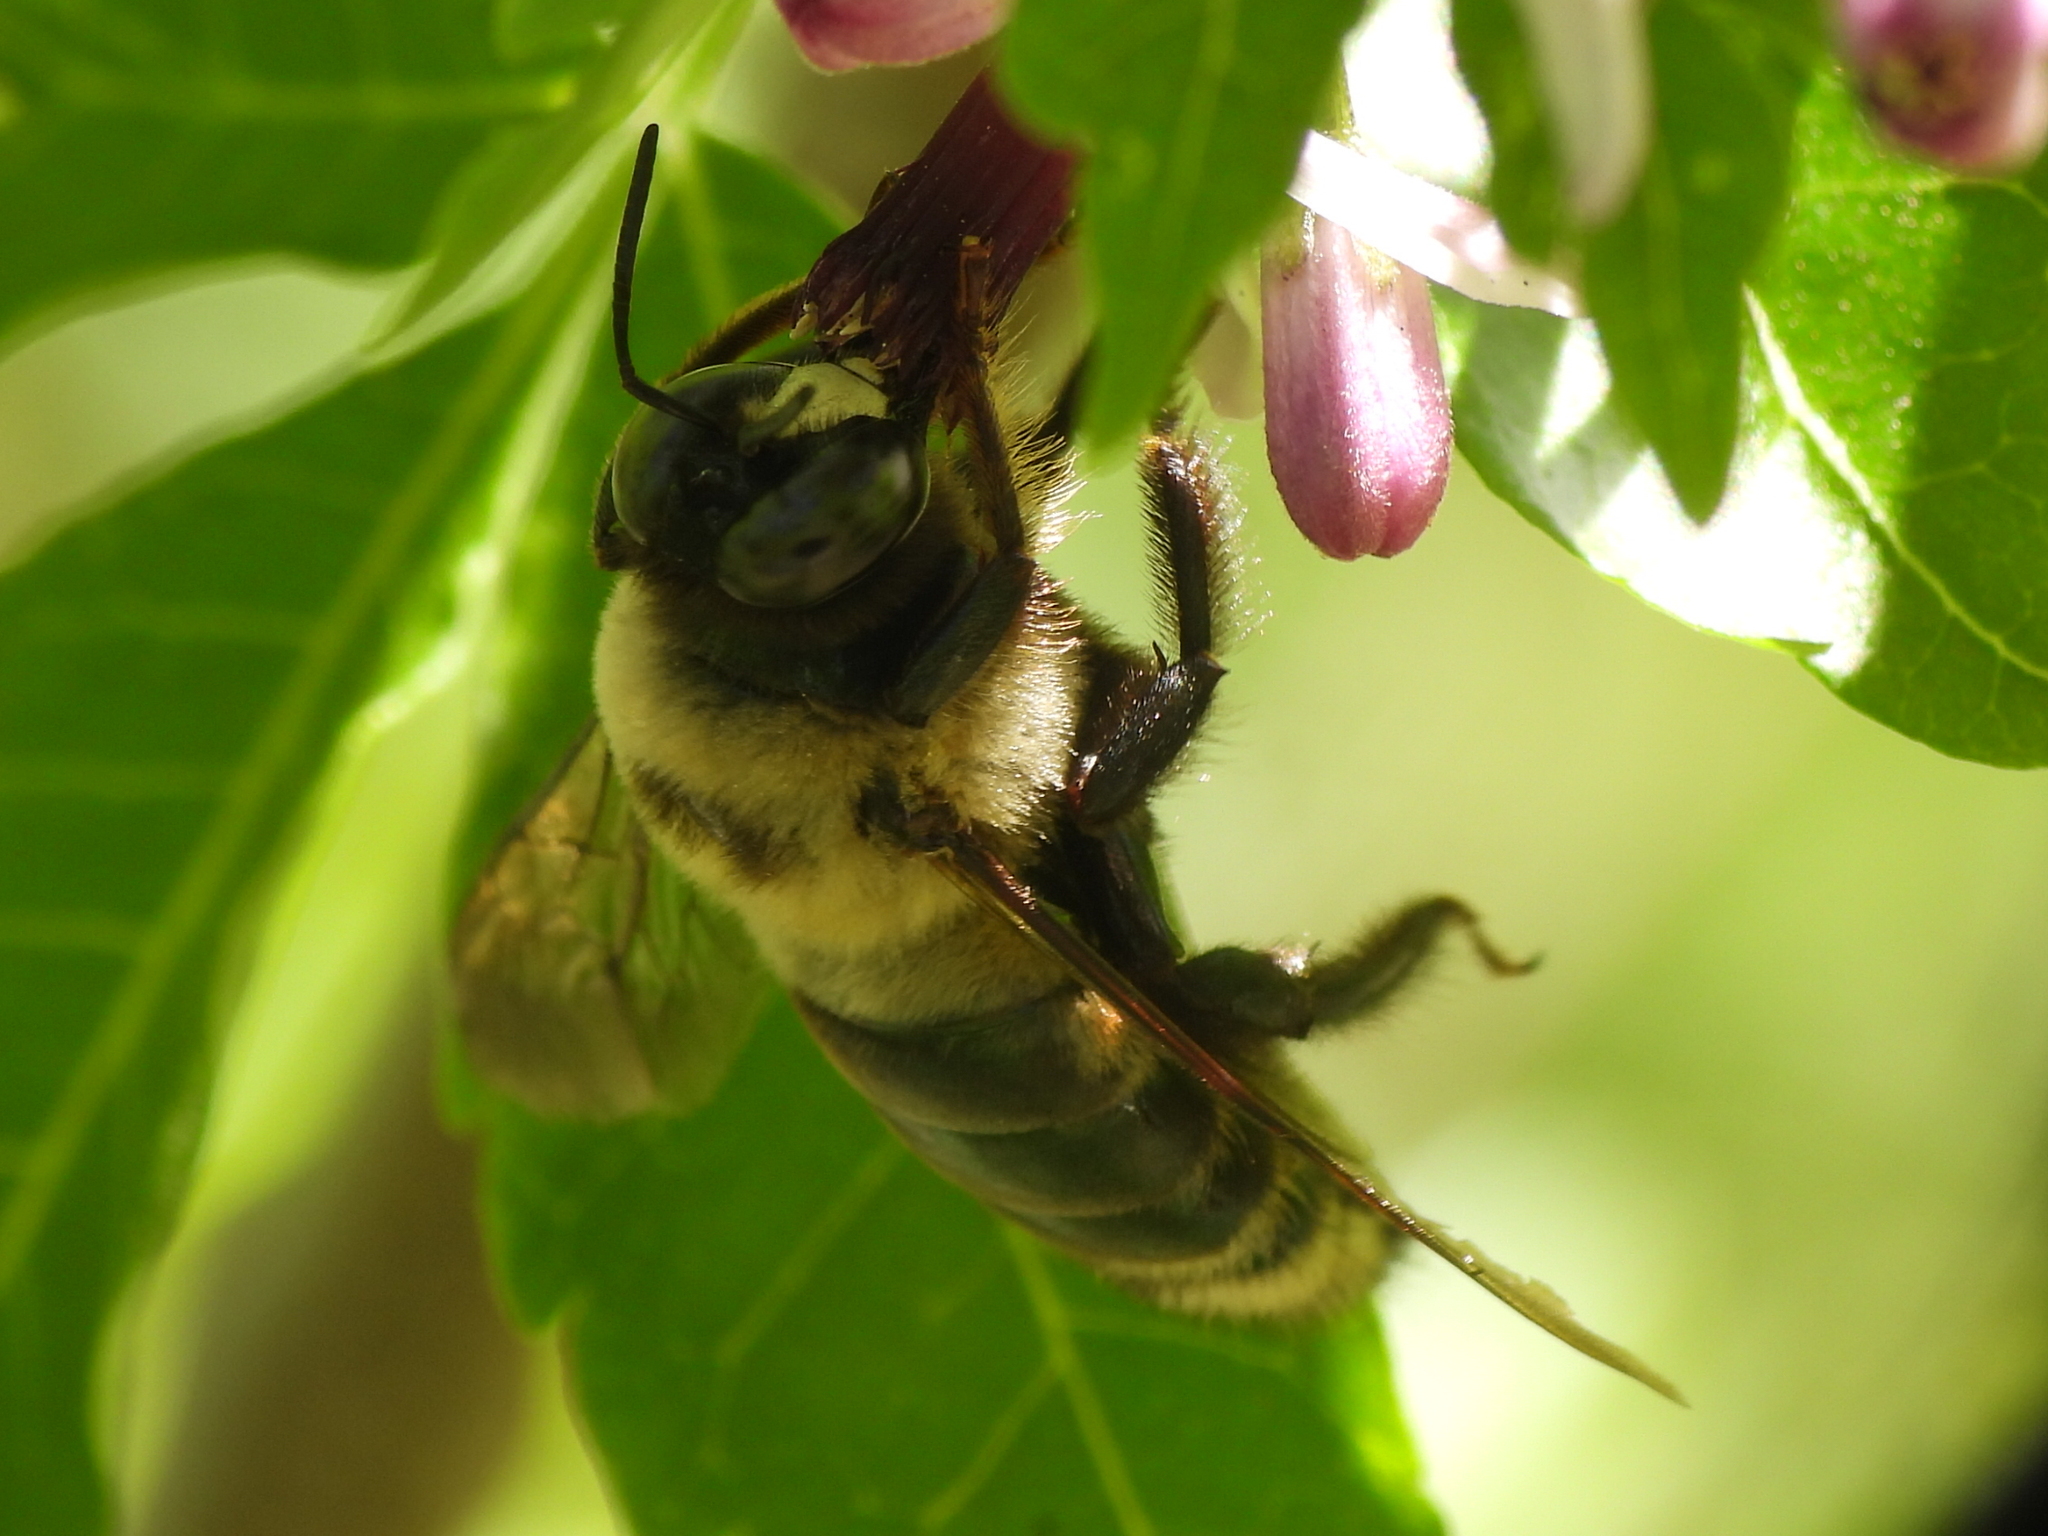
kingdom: Animalia
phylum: Arthropoda
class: Insecta
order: Hymenoptera
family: Apidae
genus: Xylocopa
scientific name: Xylocopa virginica
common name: Carpenter bee
